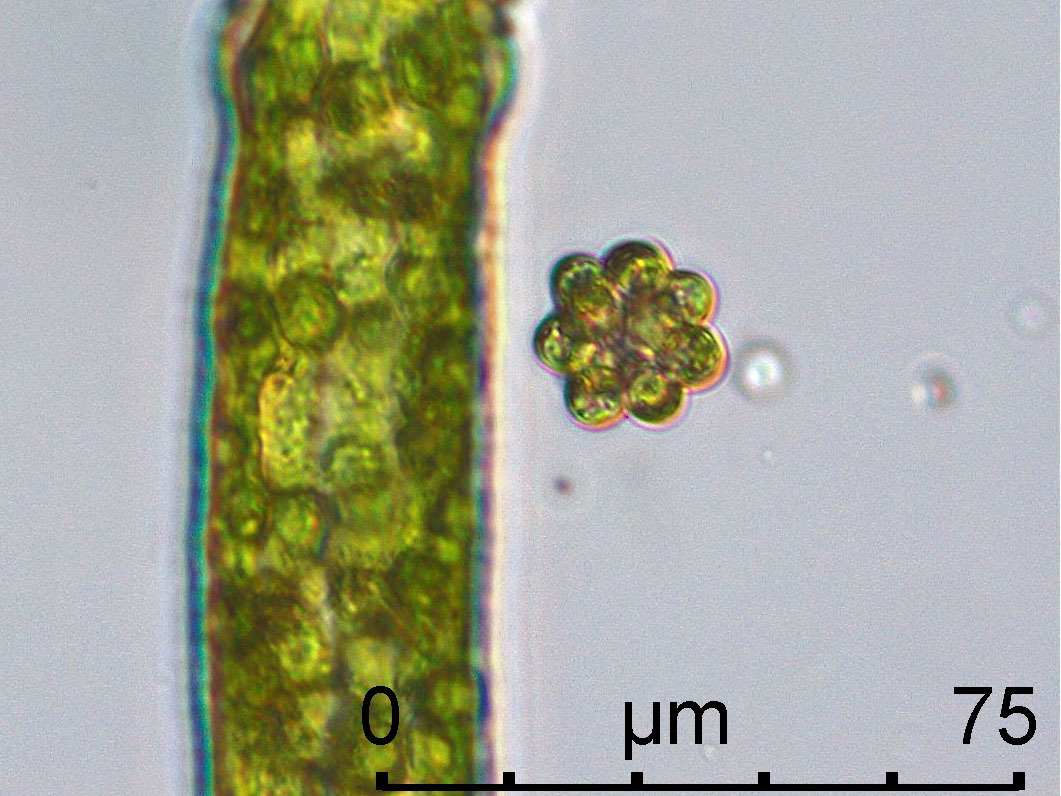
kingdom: Plantae
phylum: Chlorophyta
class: Chlorophyceae
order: Sphaeropleales
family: Scenedesmaceae
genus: Coelastrum
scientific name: Coelastrum astroideum
